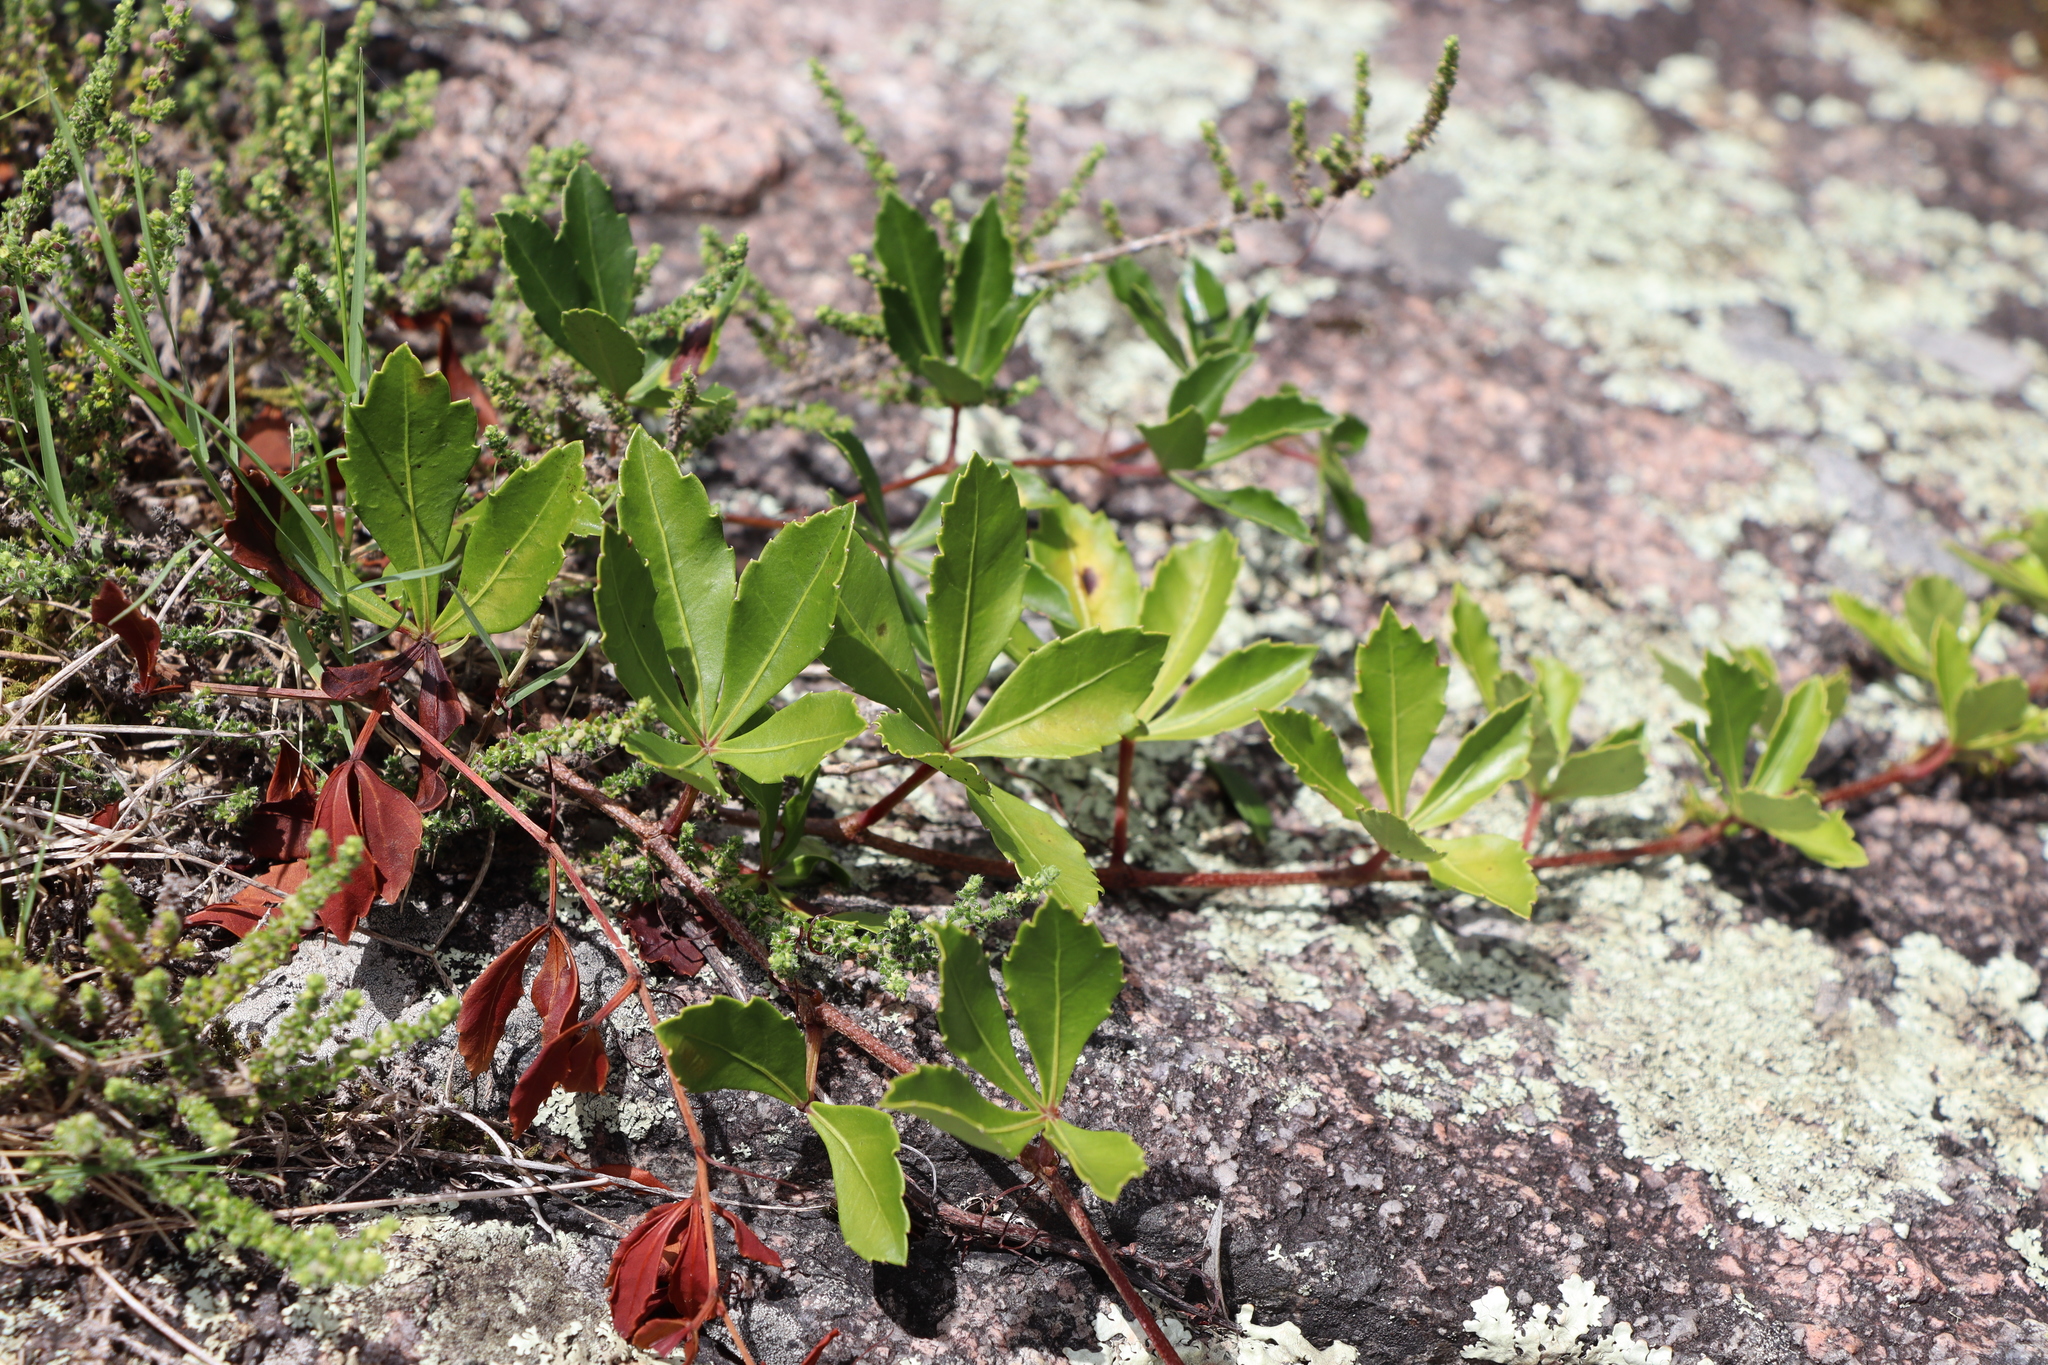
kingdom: Plantae
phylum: Tracheophyta
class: Magnoliopsida
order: Vitales
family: Vitaceae
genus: Clematicissus
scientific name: Clematicissus striata
